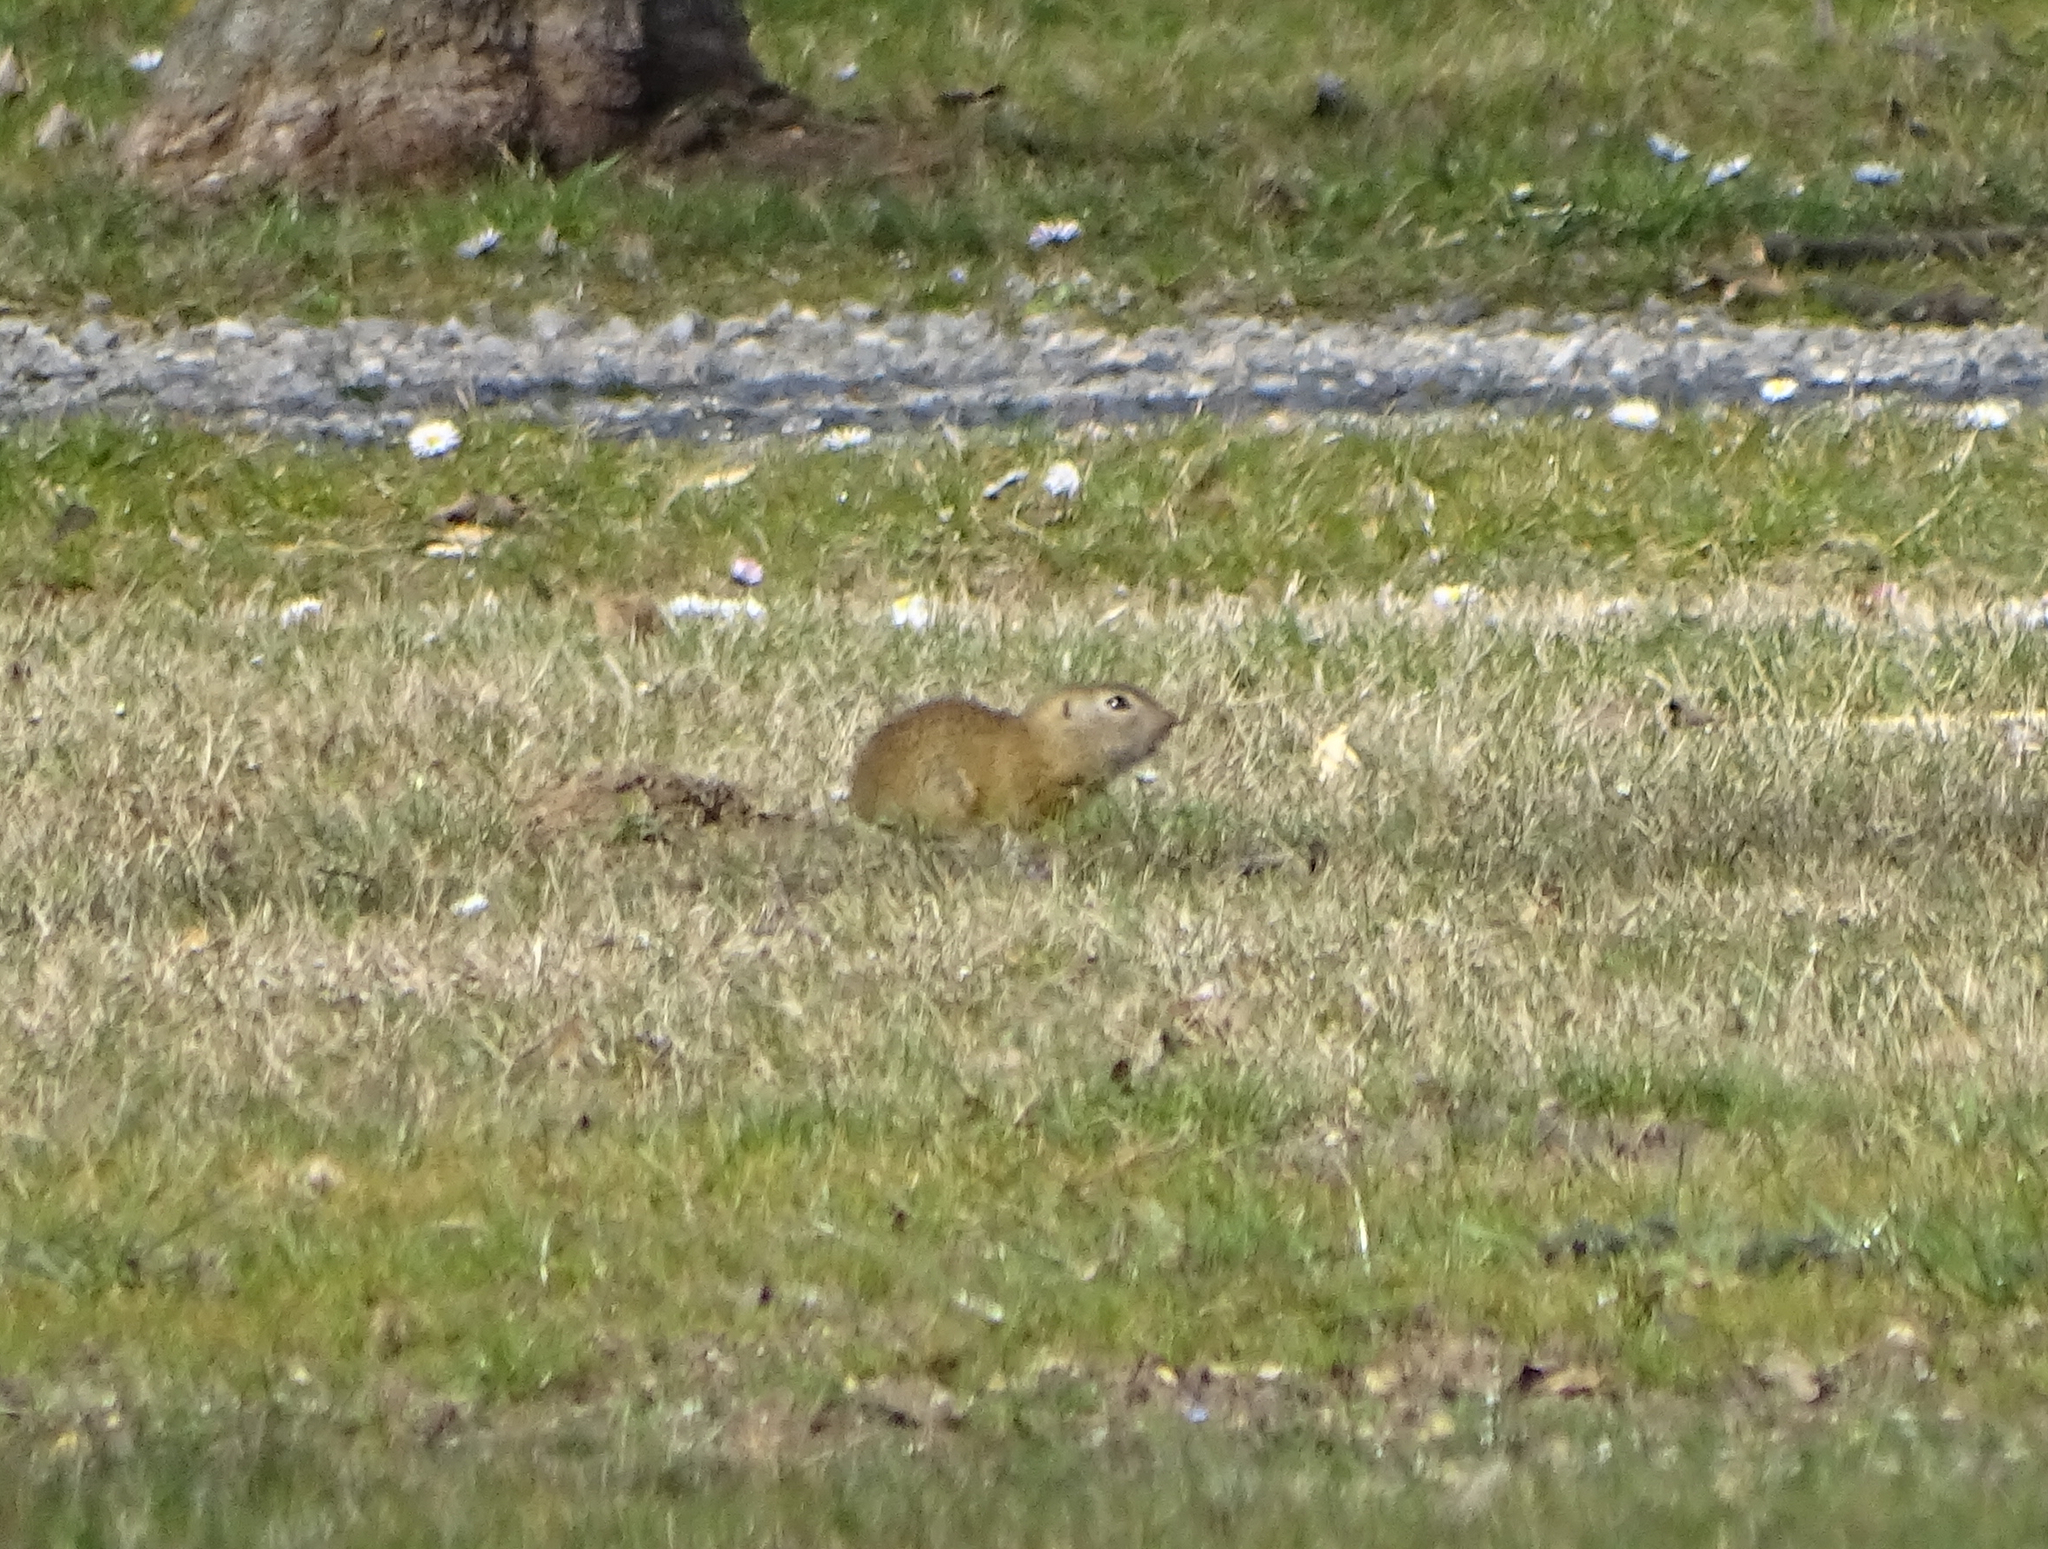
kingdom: Animalia
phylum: Chordata
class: Mammalia
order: Rodentia
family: Sciuridae
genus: Spermophilus
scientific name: Spermophilus citellus
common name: European ground squirrel
